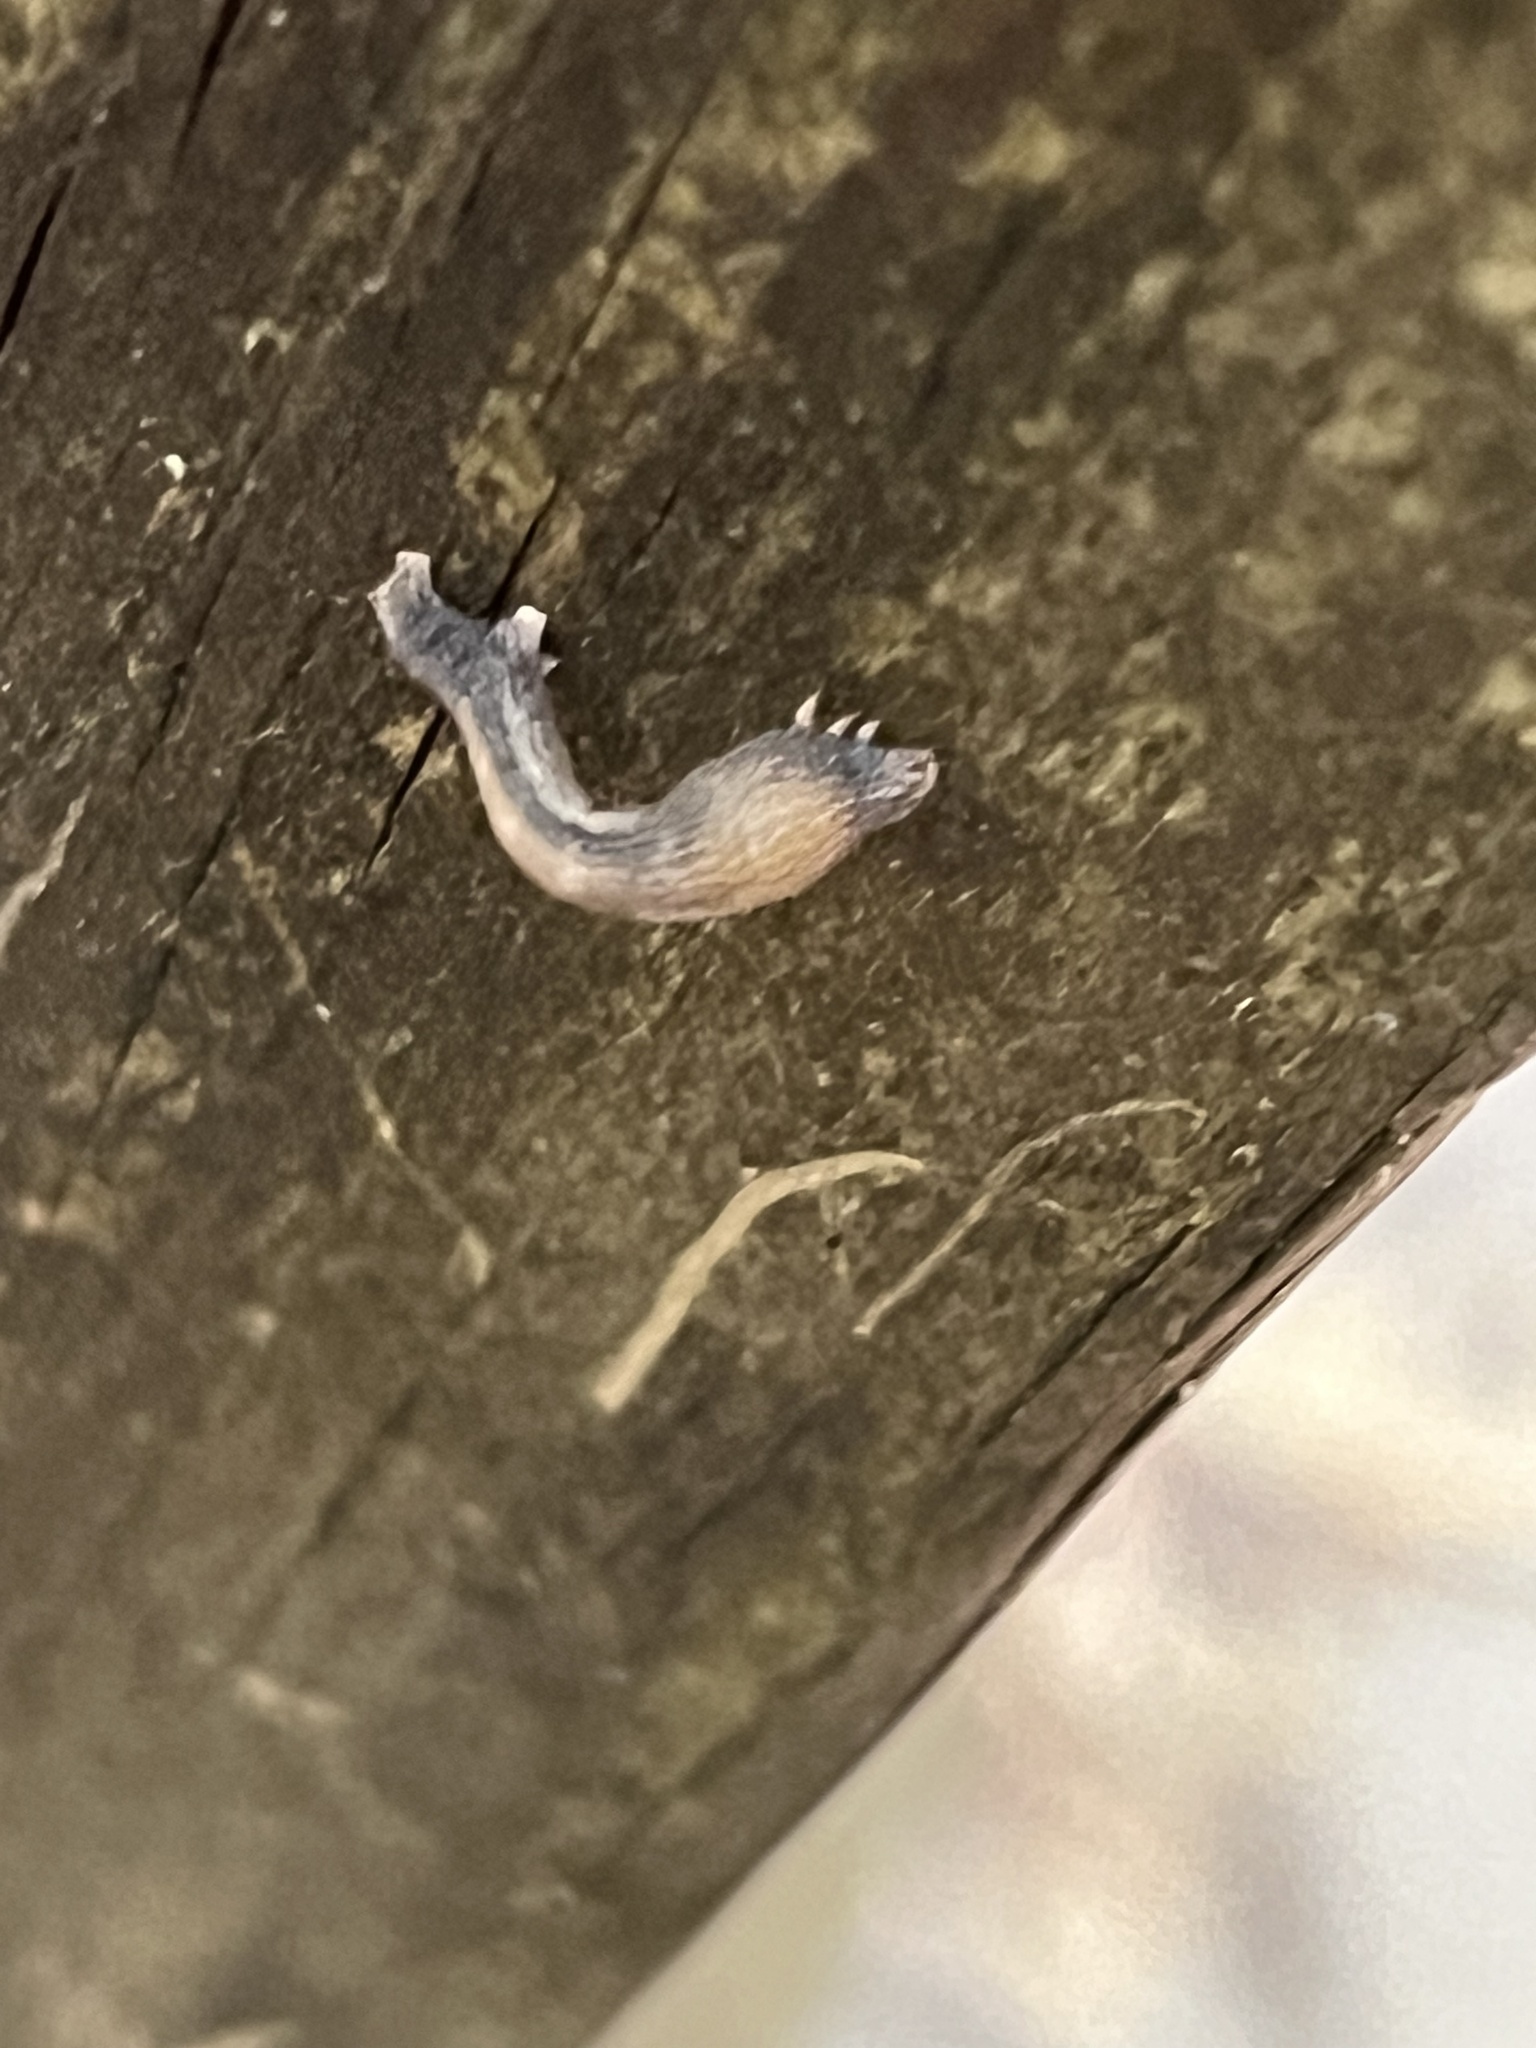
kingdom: Animalia
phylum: Arthropoda
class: Insecta
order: Lepidoptera
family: Geometridae
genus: Epimecis
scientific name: Epimecis hortaria
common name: Tulip-tree beauty
